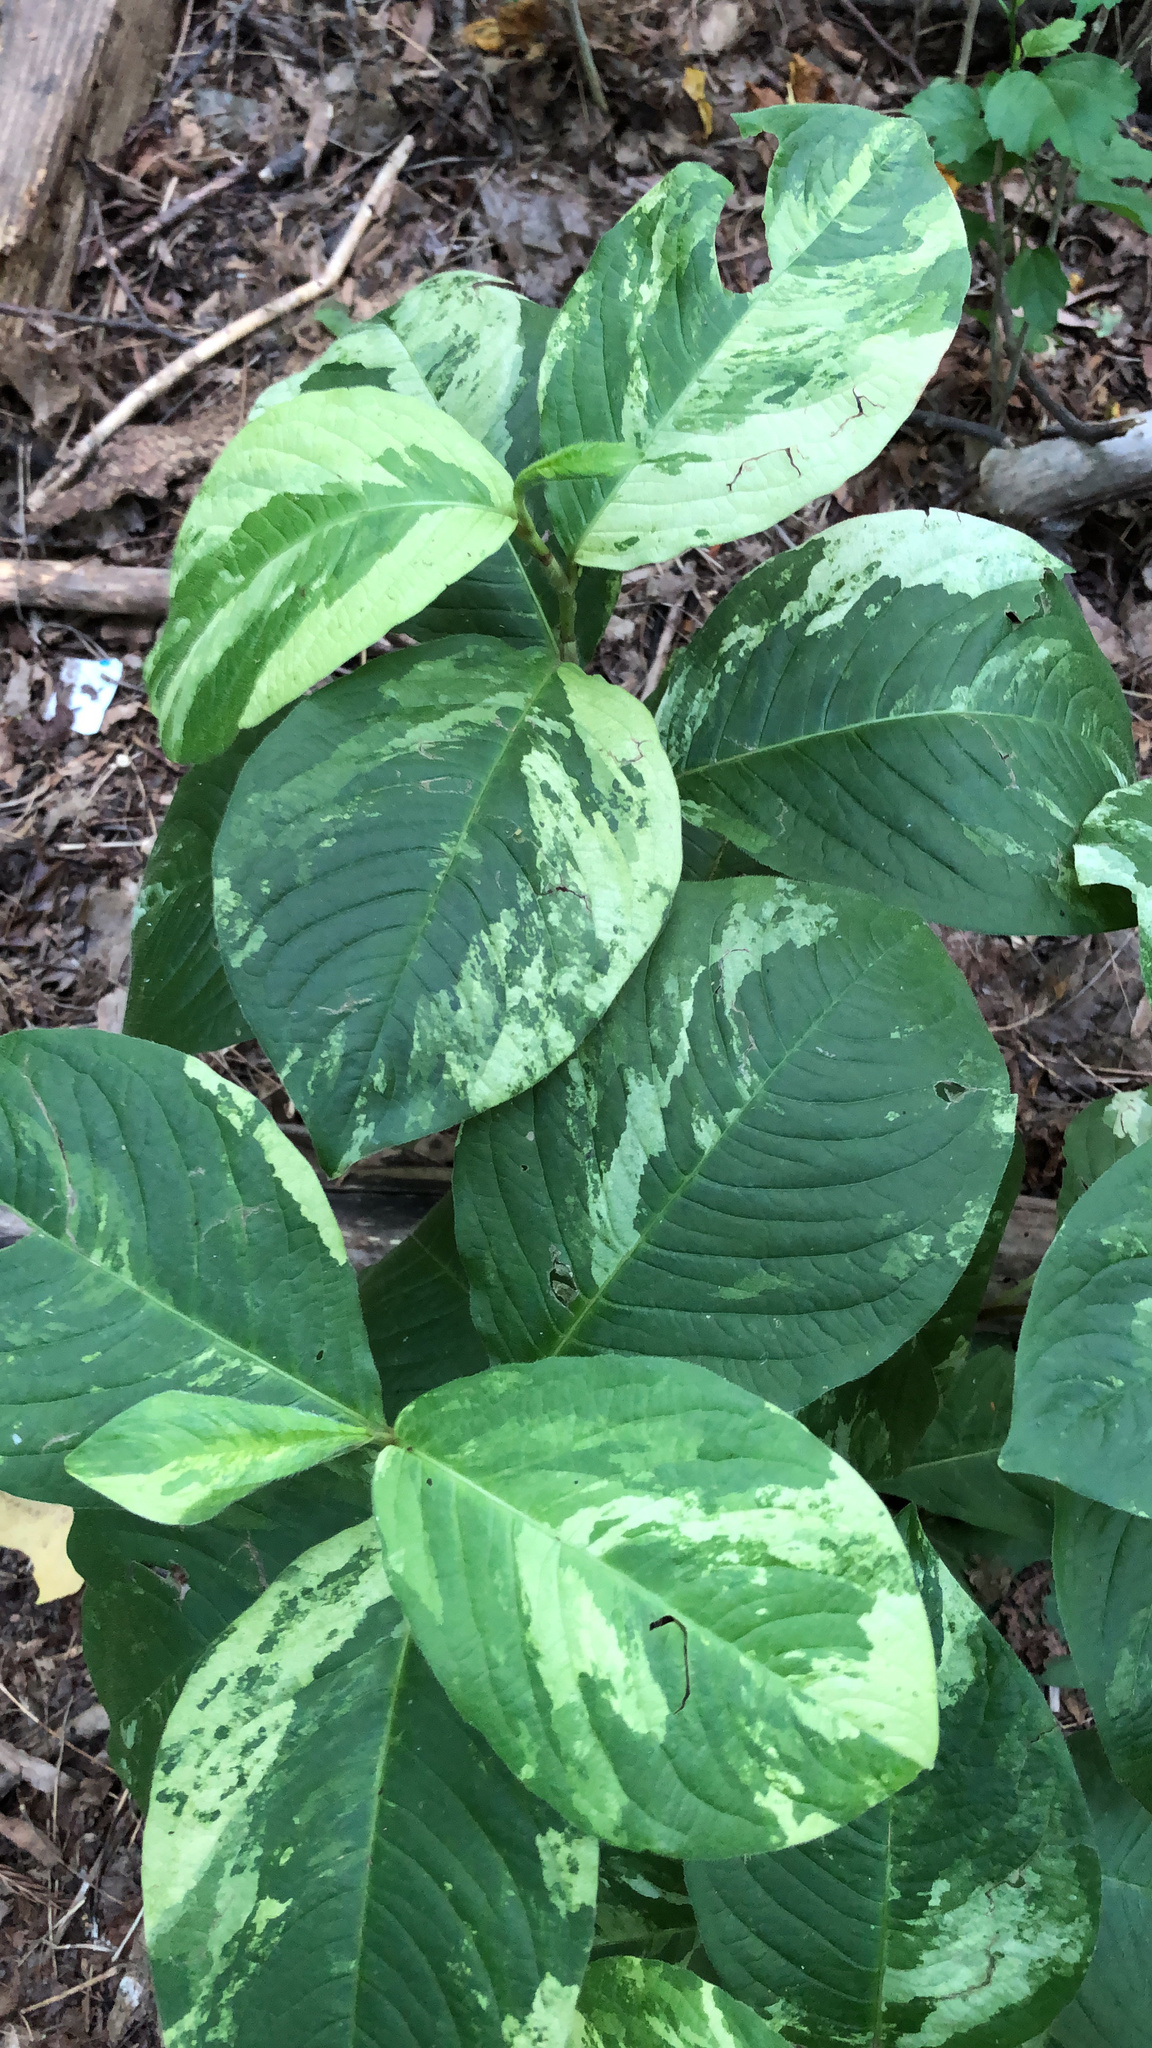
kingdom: Plantae
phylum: Tracheophyta
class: Magnoliopsida
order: Caryophyllales
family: Polygonaceae
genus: Persicaria
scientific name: Persicaria filiformis
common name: Asian jumpseed
